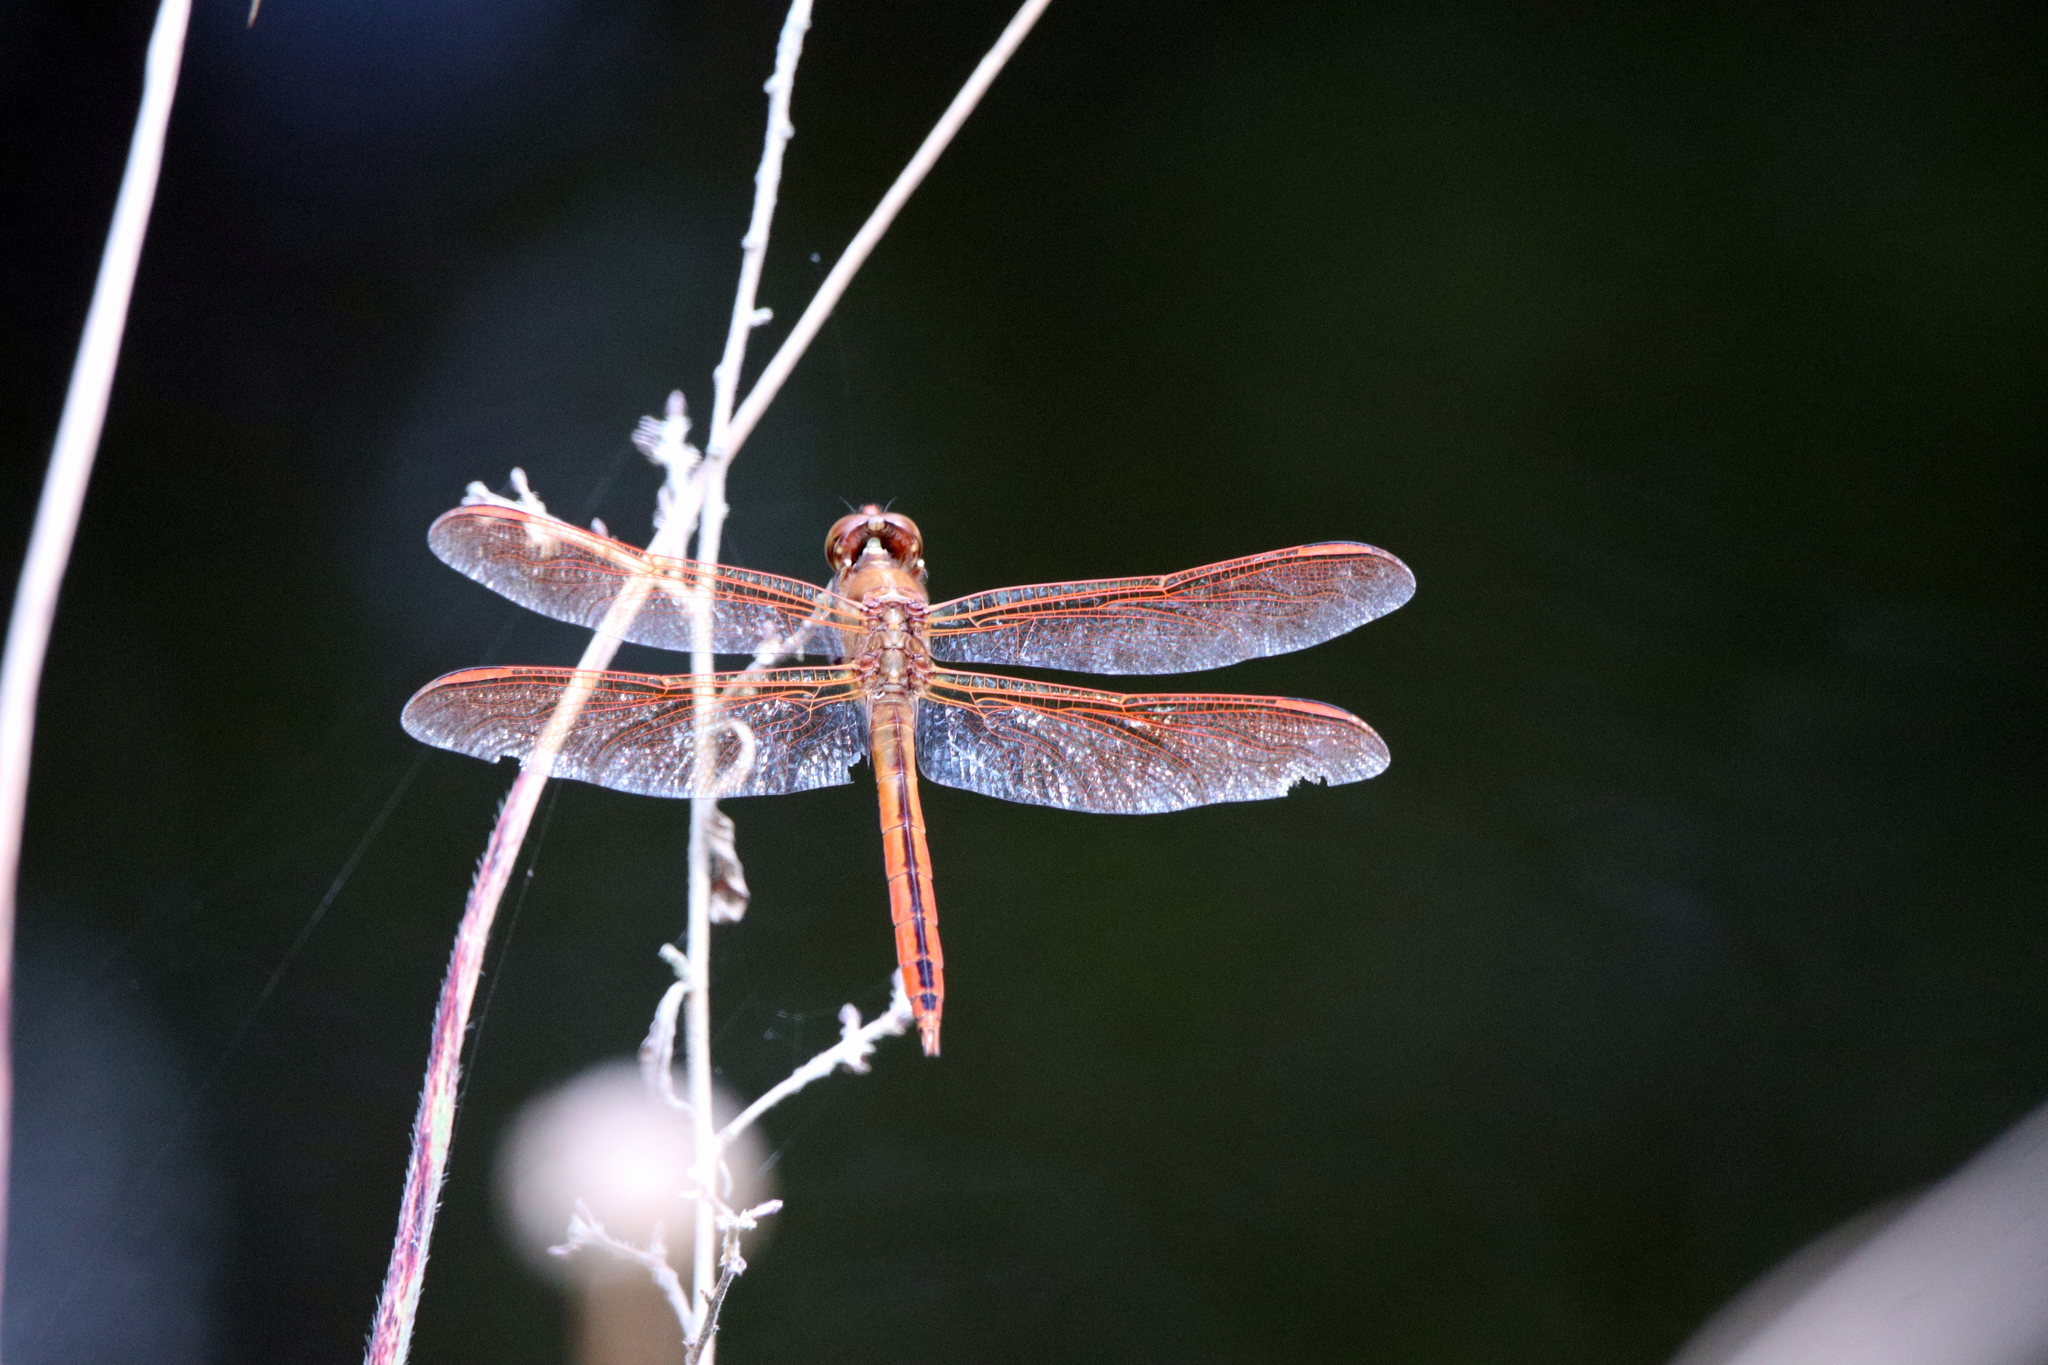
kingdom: Animalia
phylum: Arthropoda
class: Insecta
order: Odonata
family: Libellulidae
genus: Libellula
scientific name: Libellula auripennis
